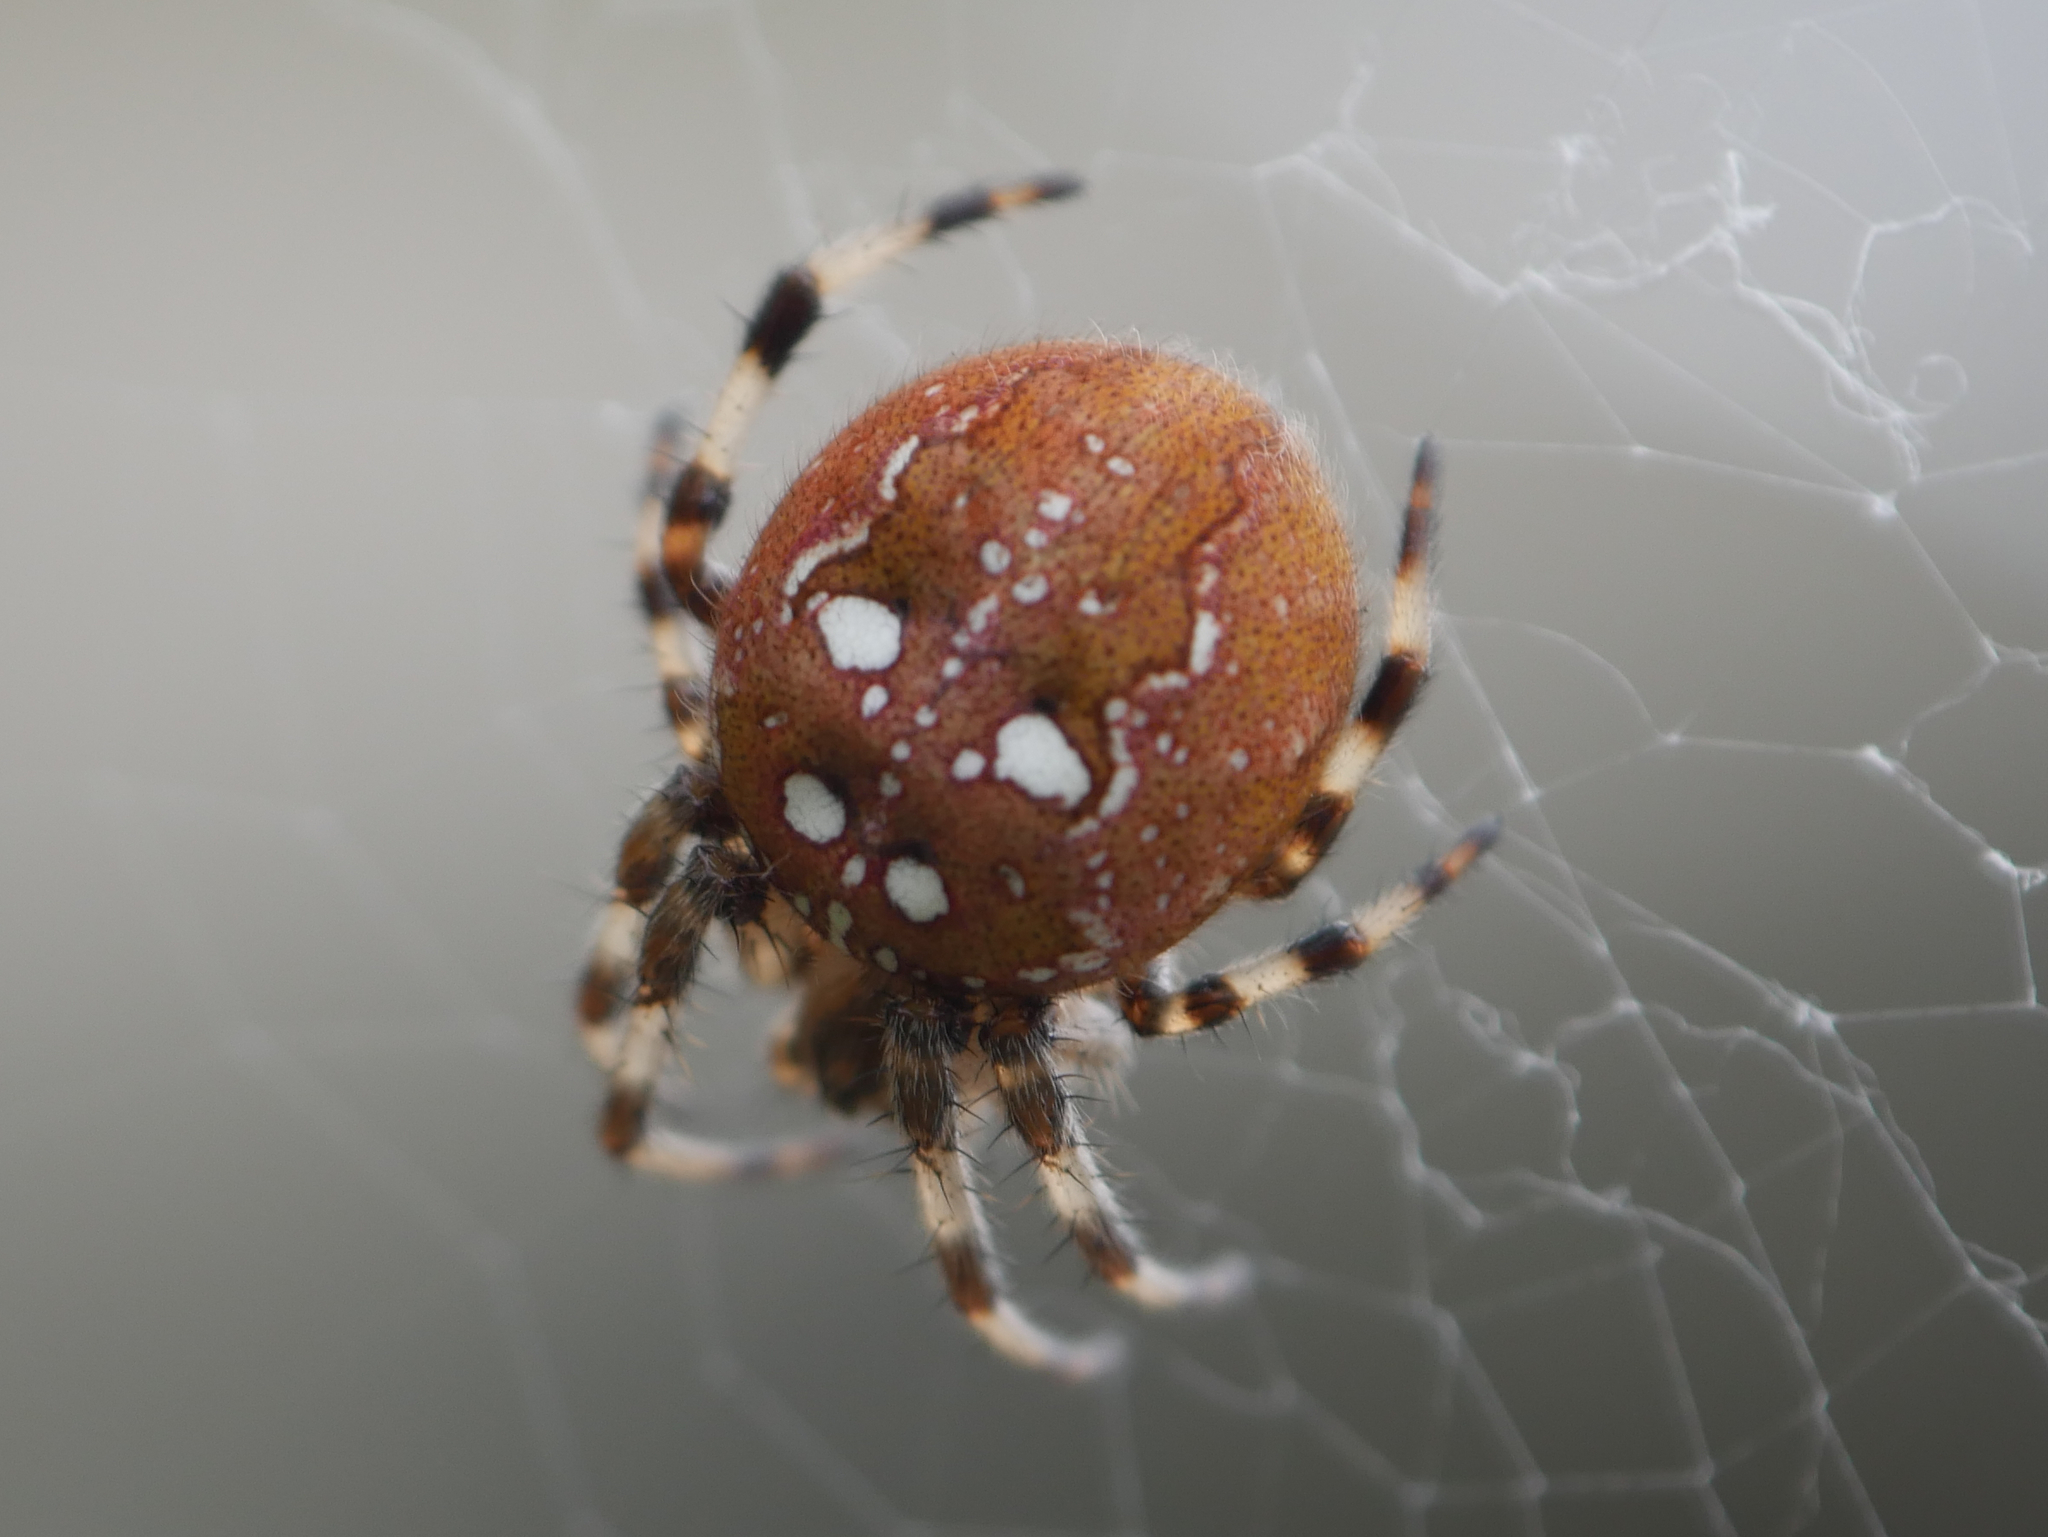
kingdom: Animalia
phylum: Arthropoda
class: Arachnida
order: Araneae
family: Araneidae
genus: Araneus
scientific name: Araneus quadratus
